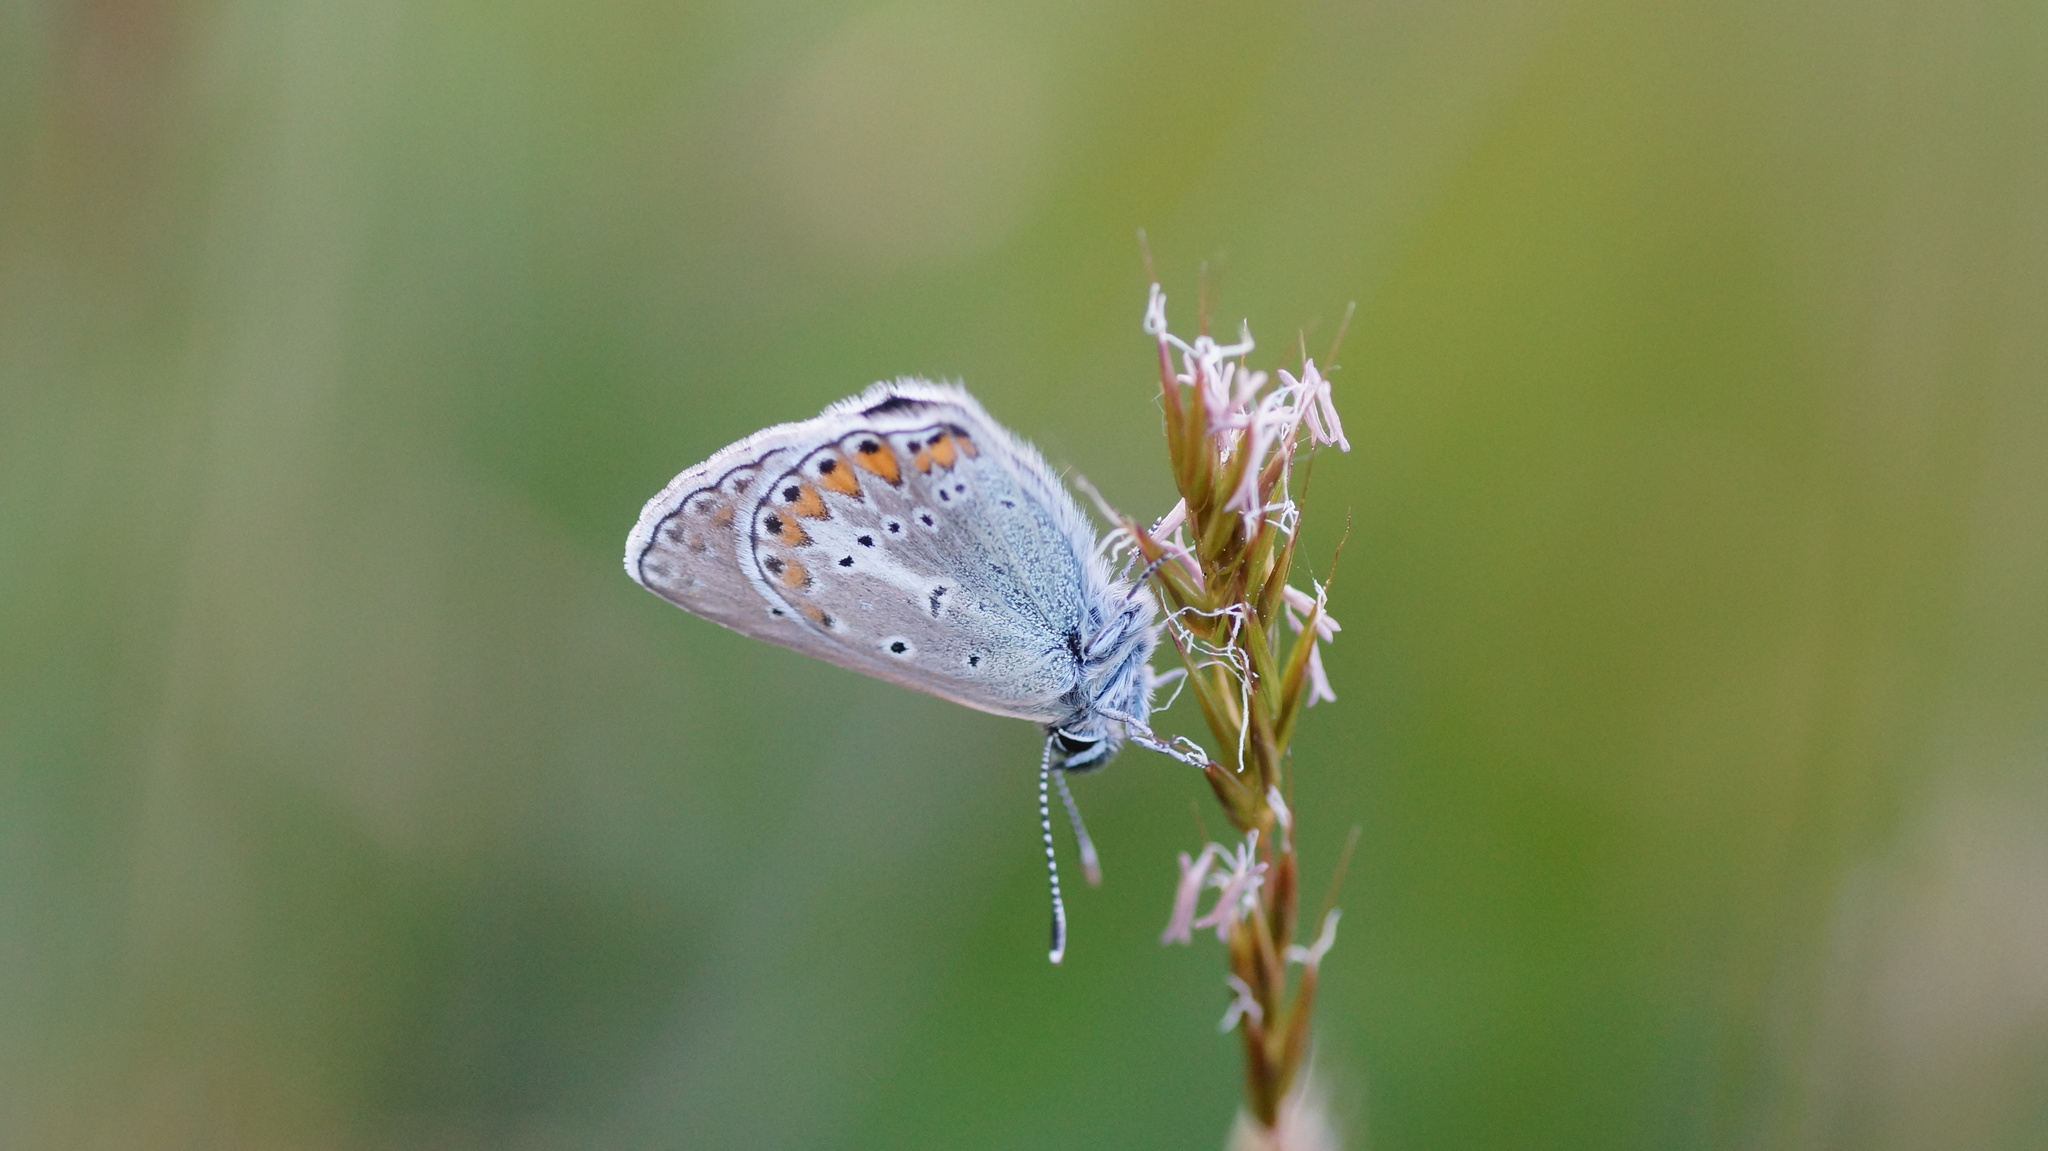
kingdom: Animalia
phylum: Arthropoda
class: Insecta
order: Lepidoptera
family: Lycaenidae
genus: Eumedonia
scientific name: Eumedonia eumedon
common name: Geranium argus
